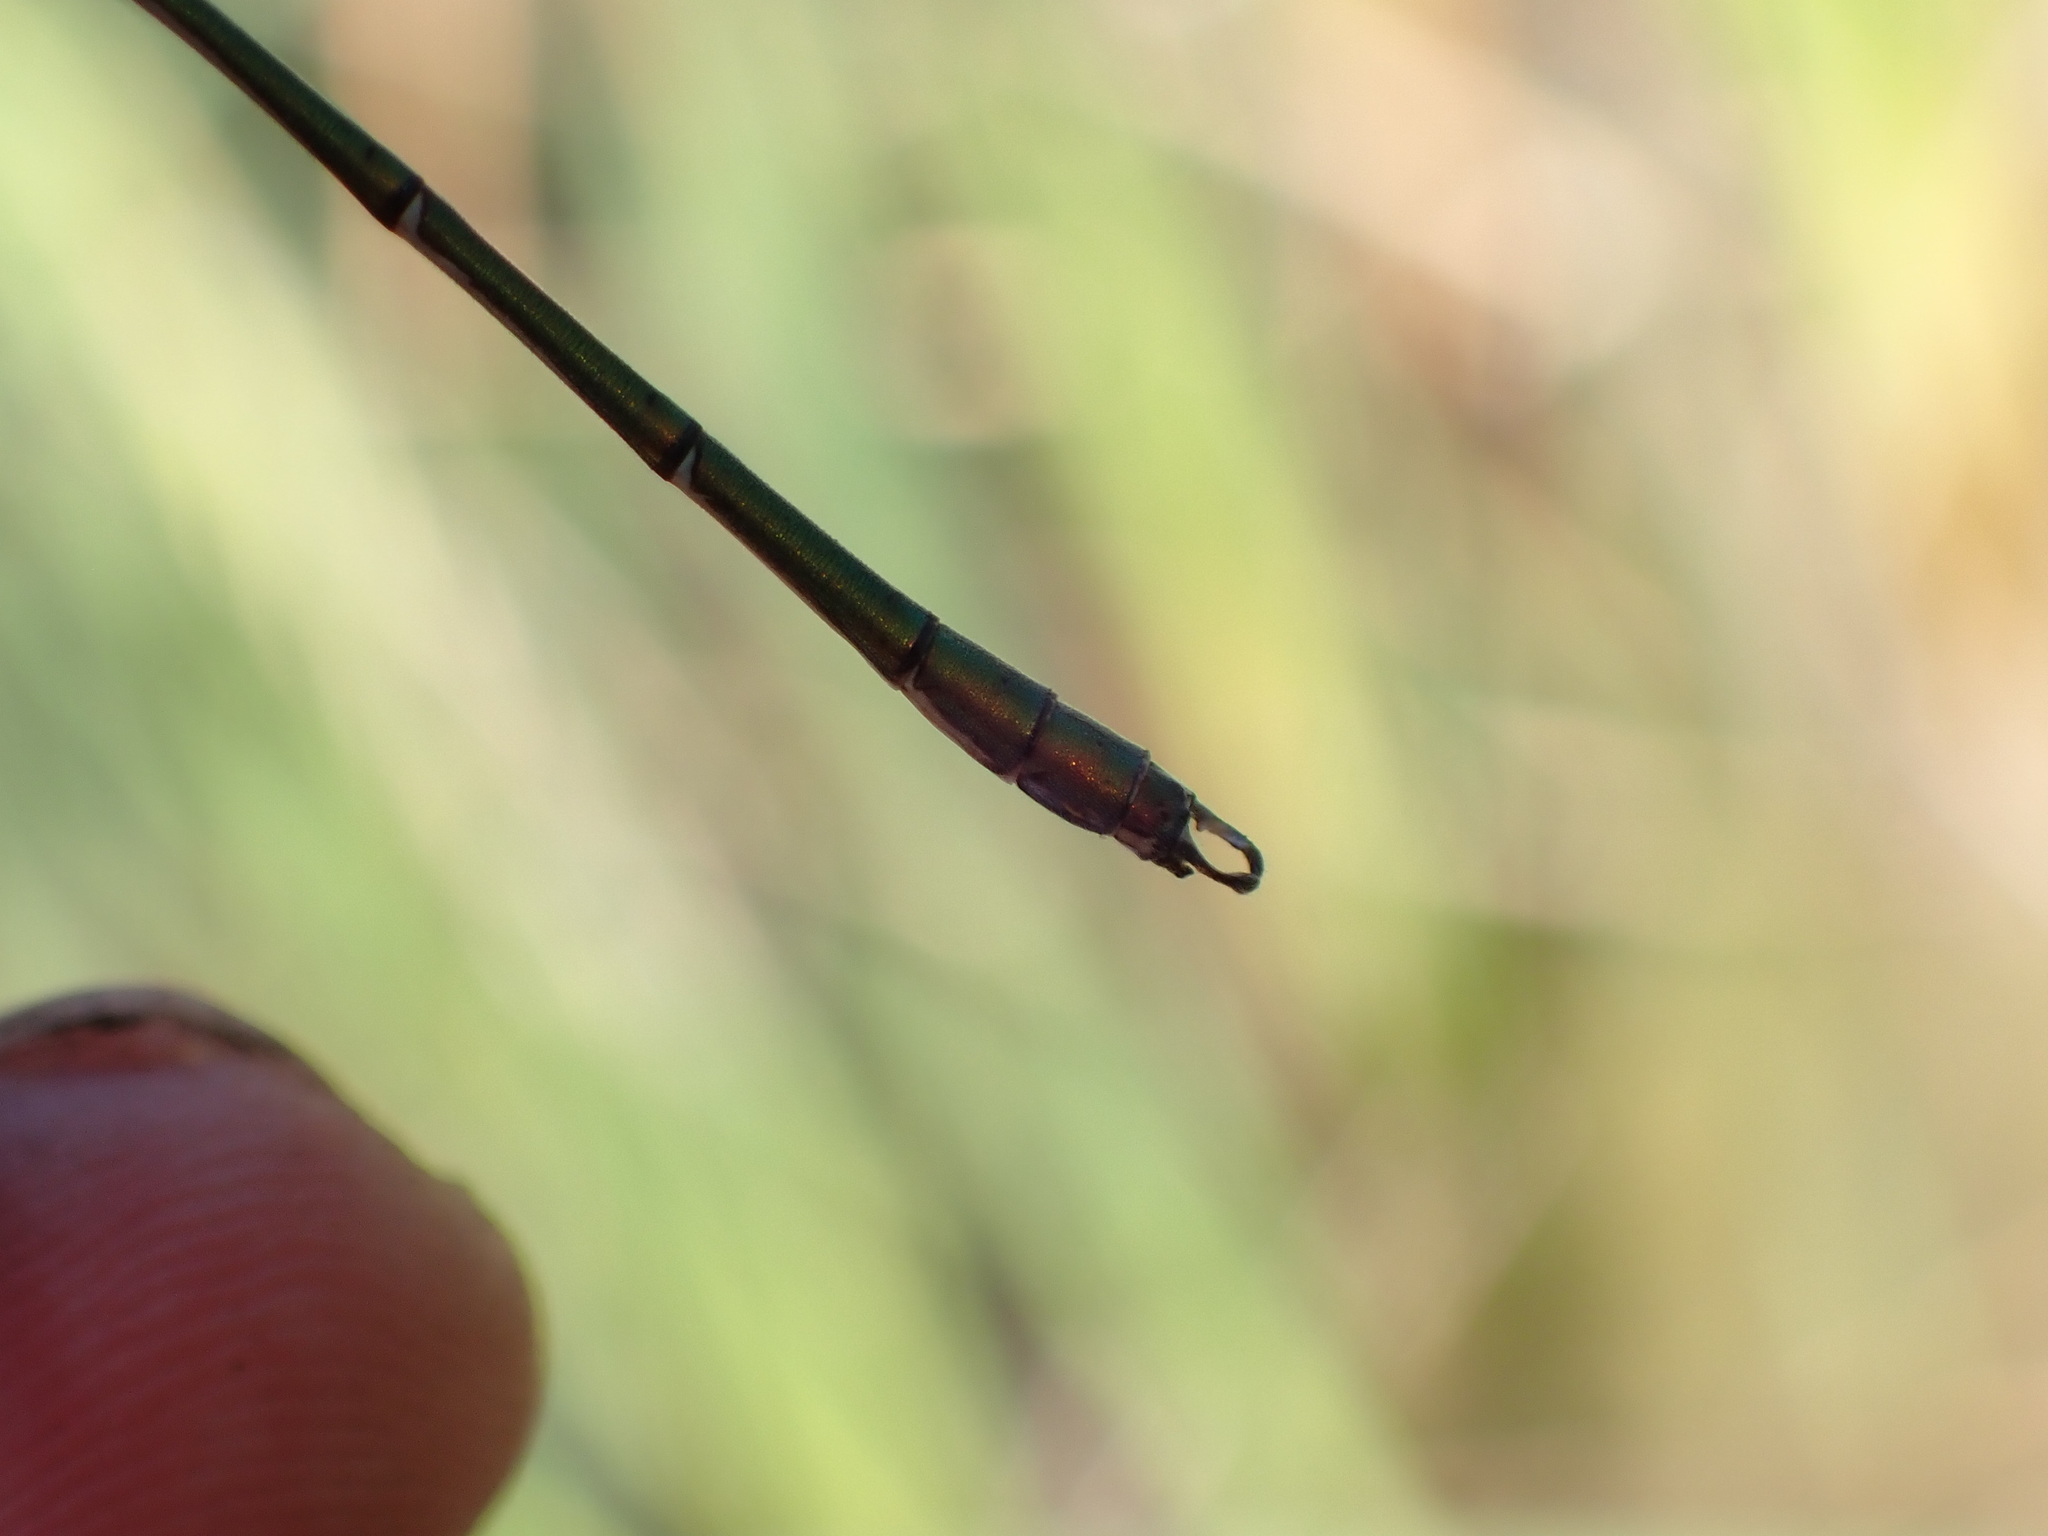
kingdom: Animalia
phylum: Arthropoda
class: Insecta
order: Odonata
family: Lestidae
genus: Chalcolestes
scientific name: Chalcolestes viridis
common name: Green emerald damselfly
